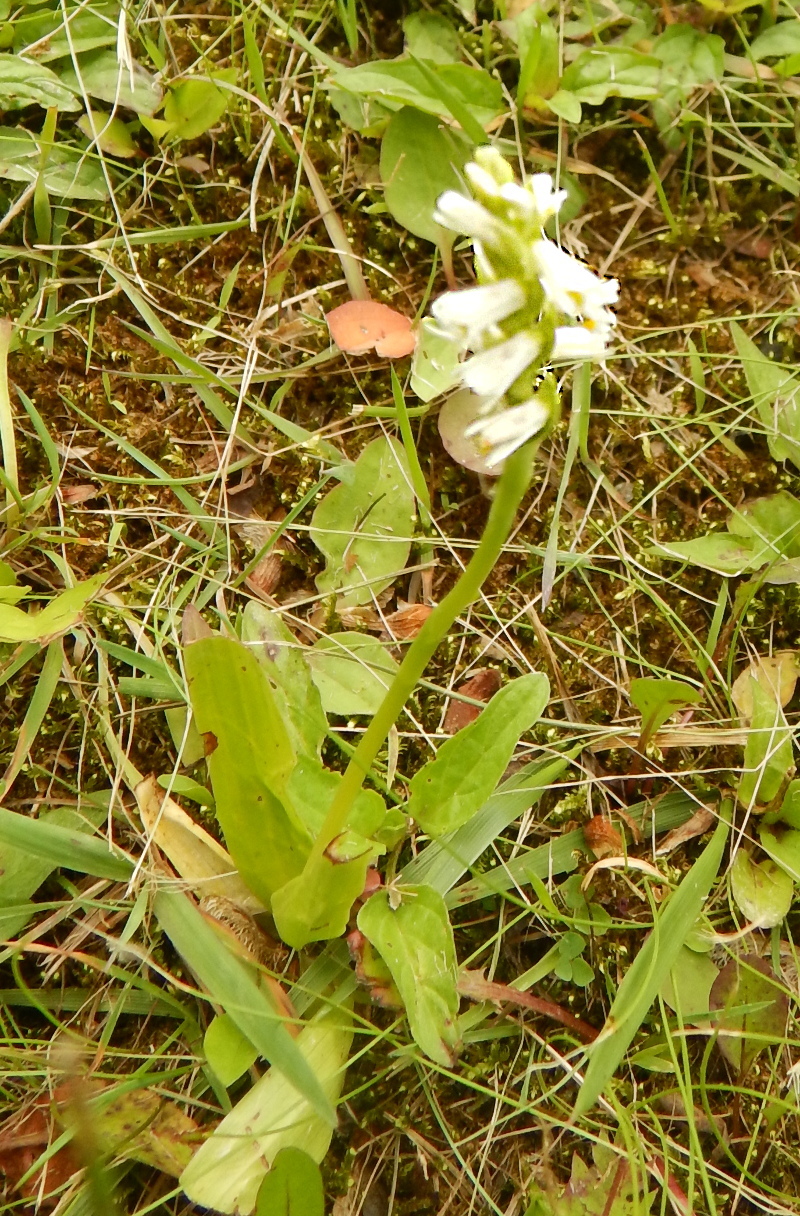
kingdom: Plantae
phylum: Tracheophyta
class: Liliopsida
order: Asparagales
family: Orchidaceae
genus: Spiranthes
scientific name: Spiranthes lucida
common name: Broad-leaved ladies'-tresses
